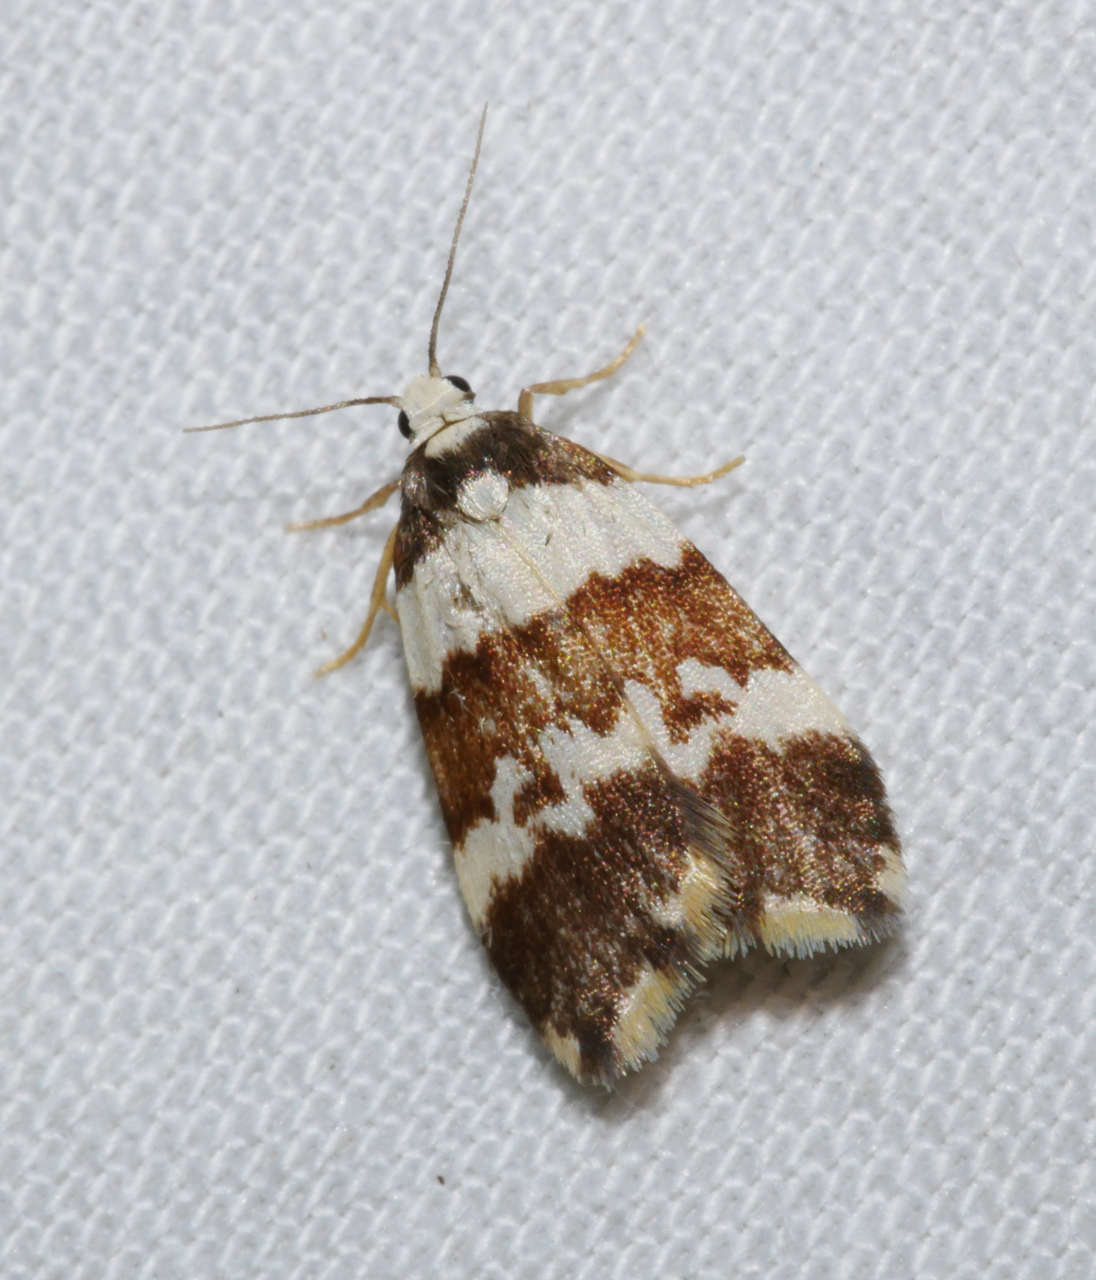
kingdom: Animalia
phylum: Arthropoda
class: Insecta
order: Lepidoptera
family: Erebidae
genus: Halone
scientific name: Halone sejuncta
